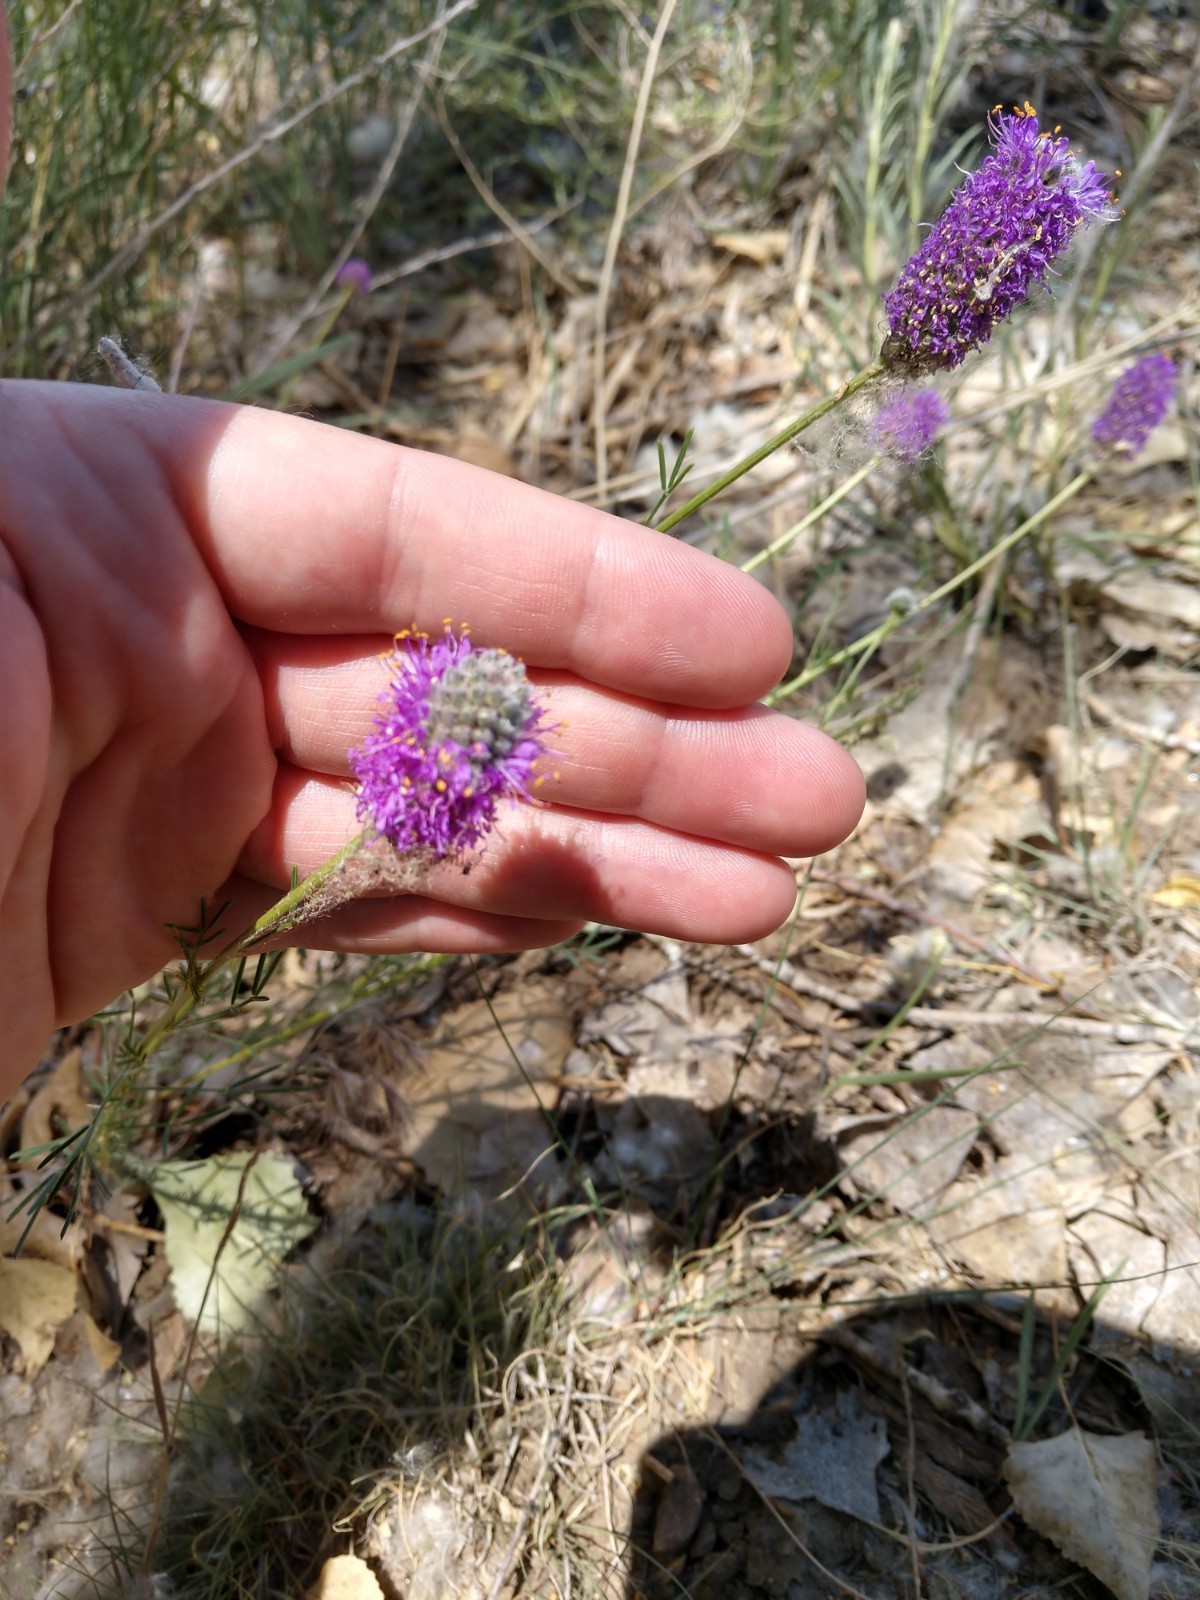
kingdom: Plantae
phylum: Tracheophyta
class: Magnoliopsida
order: Fabales
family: Fabaceae
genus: Dalea
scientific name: Dalea purpurea
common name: Purple prairie-clover
